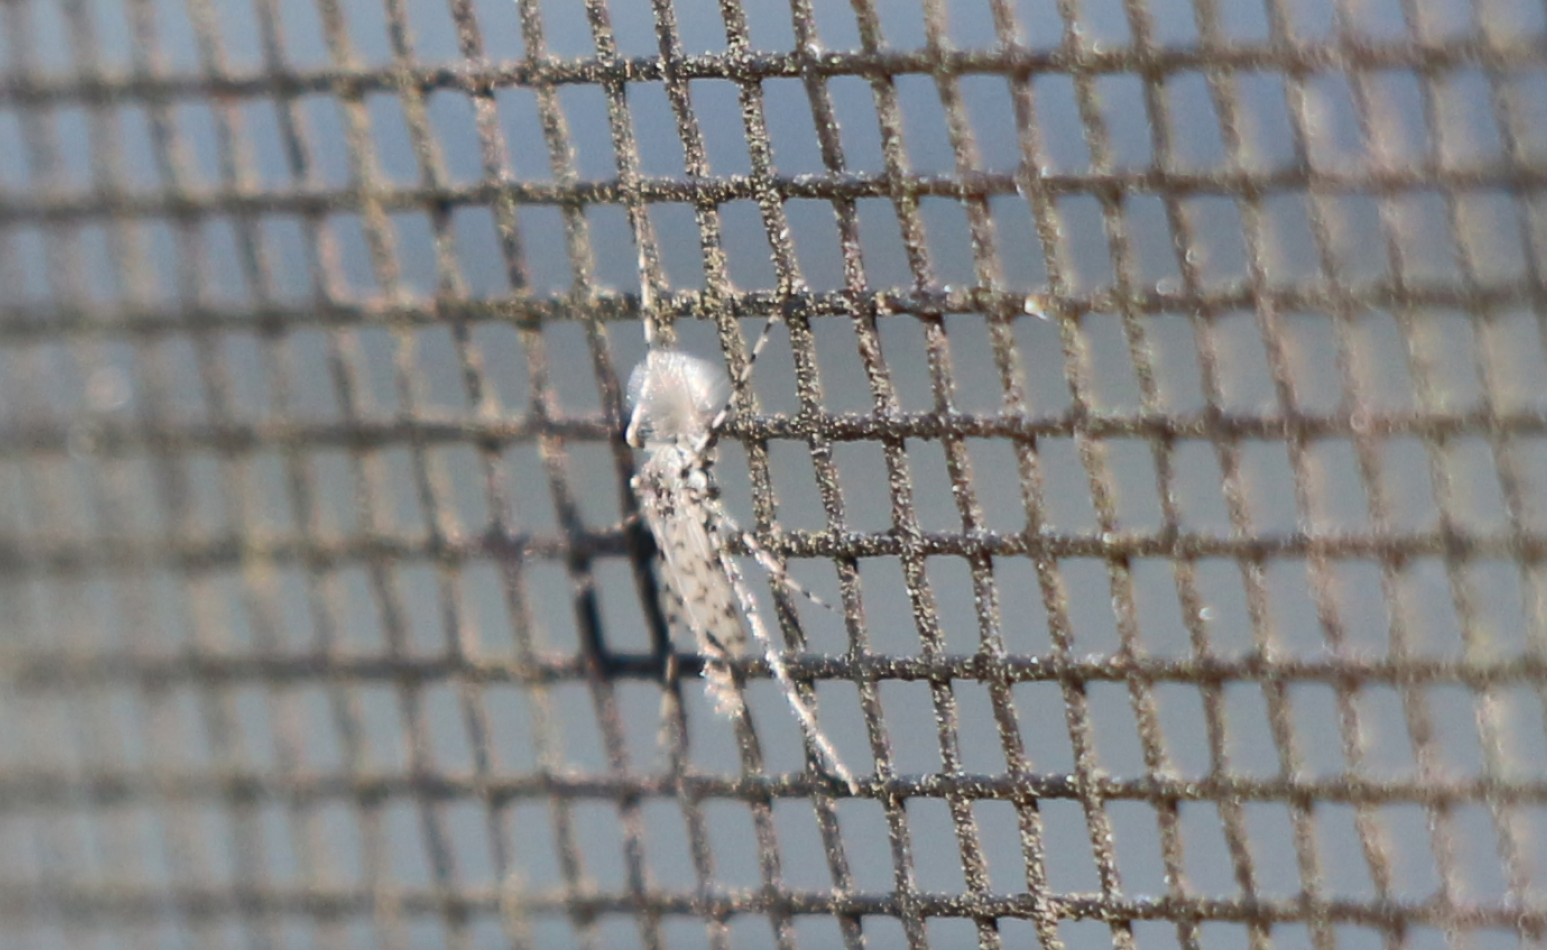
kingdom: Animalia
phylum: Arthropoda
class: Insecta
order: Diptera
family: Chironomidae
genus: Ablabesmyia
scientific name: Ablabesmyia
